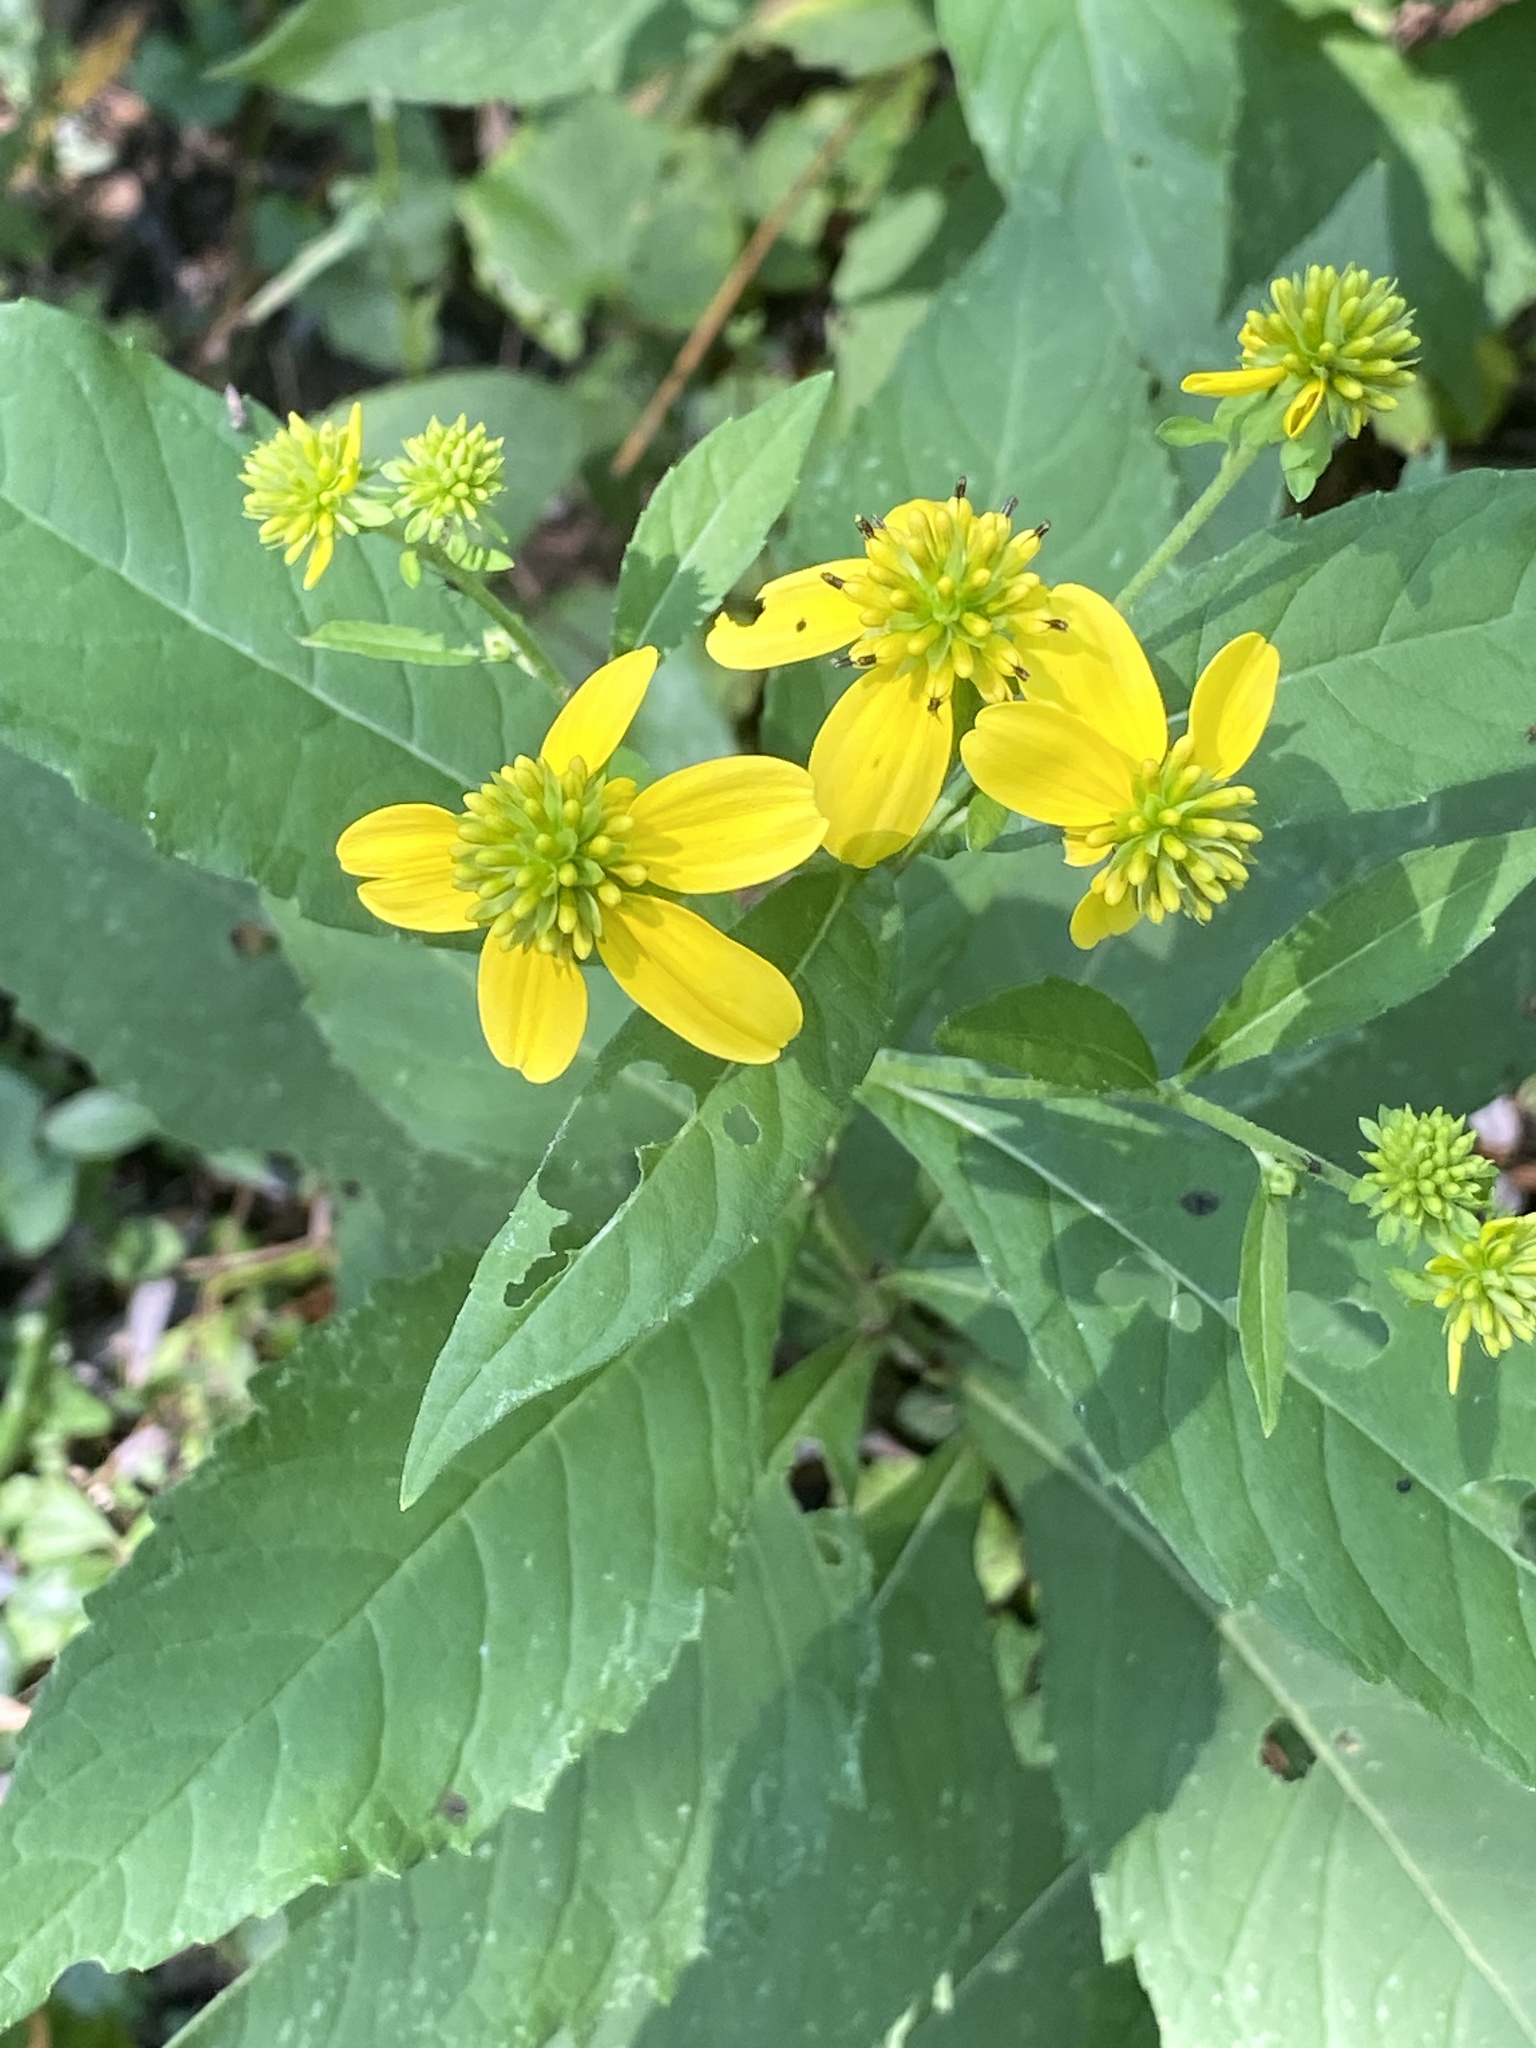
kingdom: Plantae
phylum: Tracheophyta
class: Magnoliopsida
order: Asterales
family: Asteraceae
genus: Verbesina
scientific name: Verbesina alternifolia
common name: Wingstem
